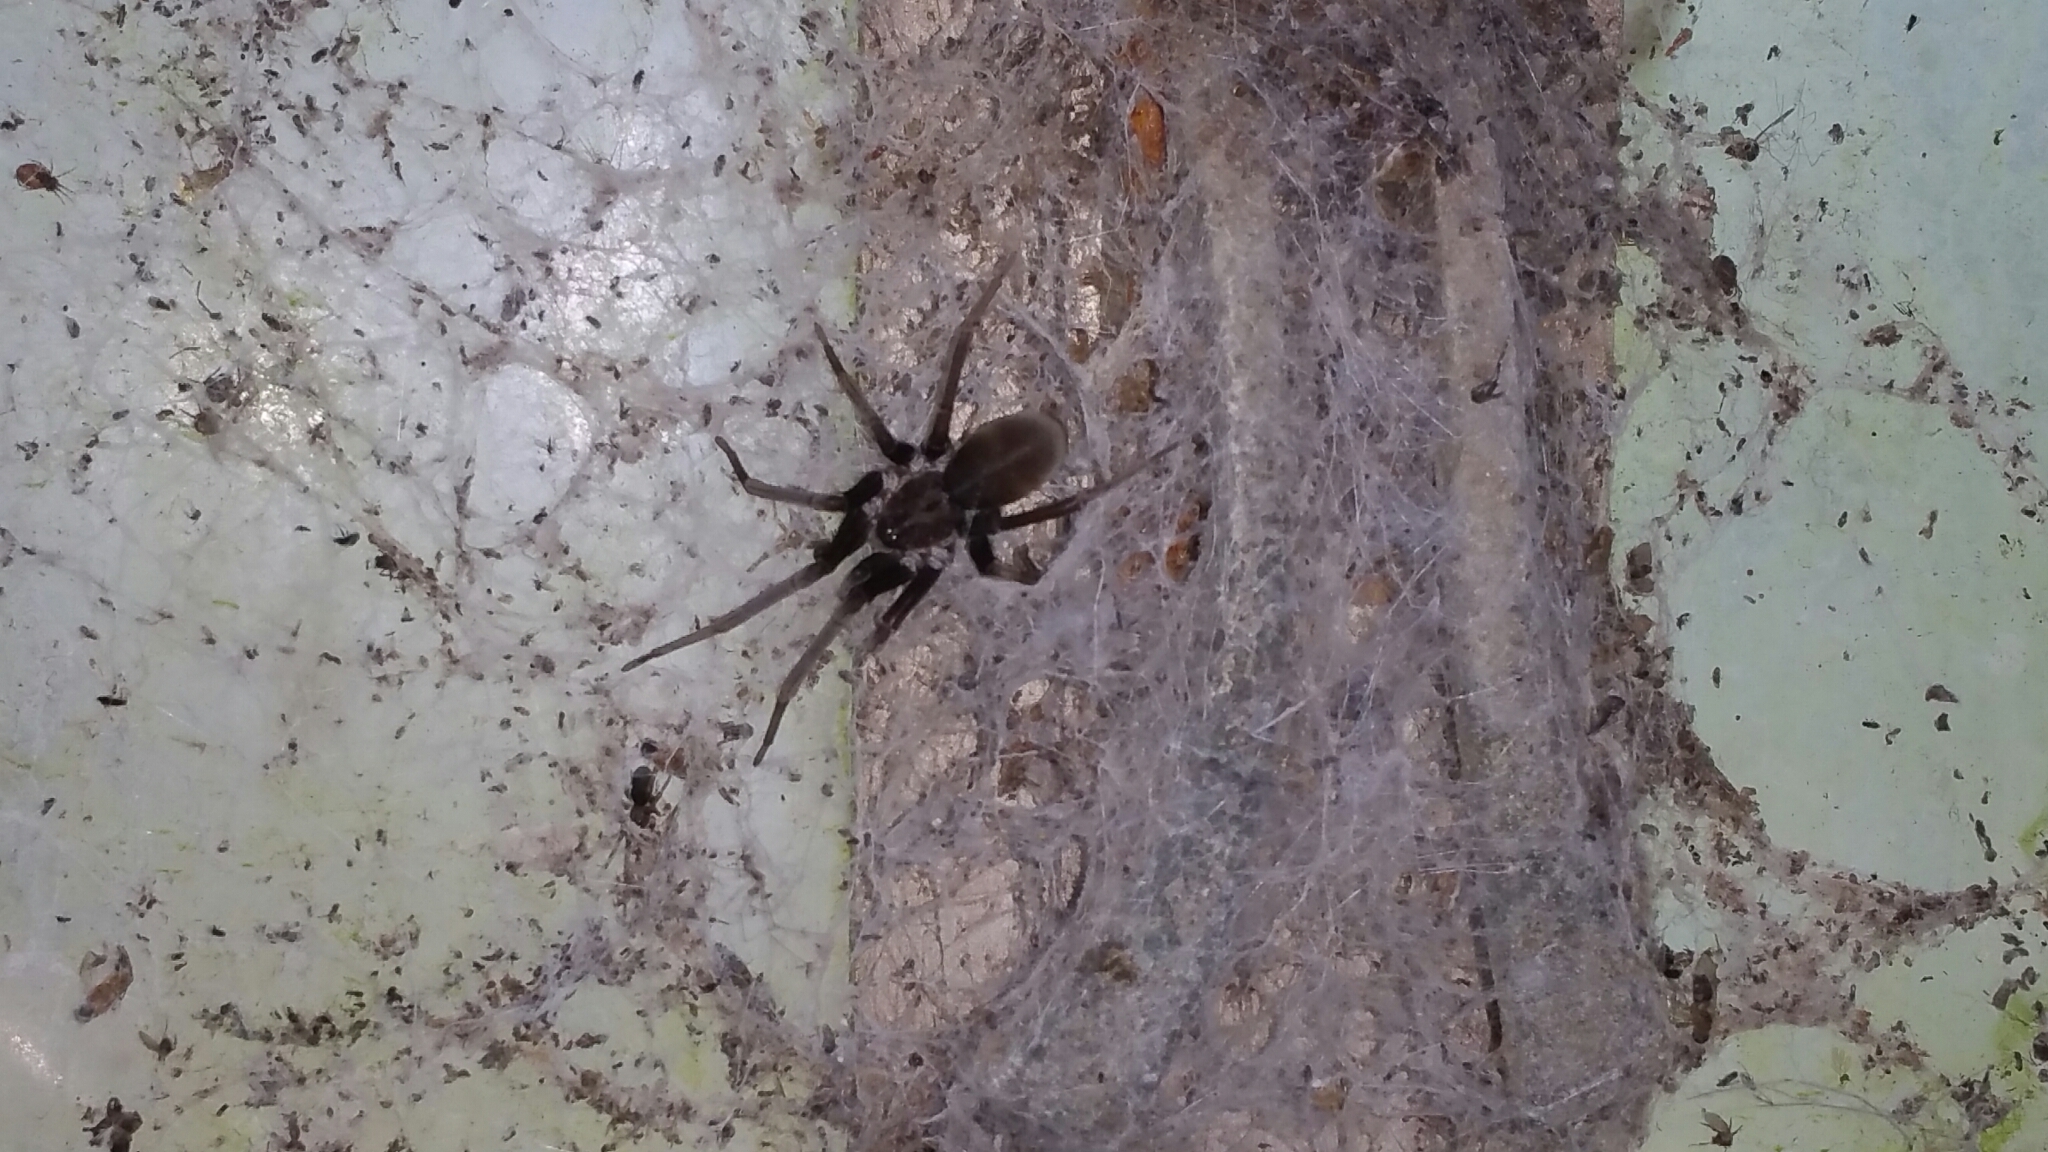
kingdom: Animalia
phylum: Arthropoda
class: Arachnida
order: Araneae
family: Filistatidae
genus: Kukulcania
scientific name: Kukulcania hibernalis
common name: Crevice weaver
